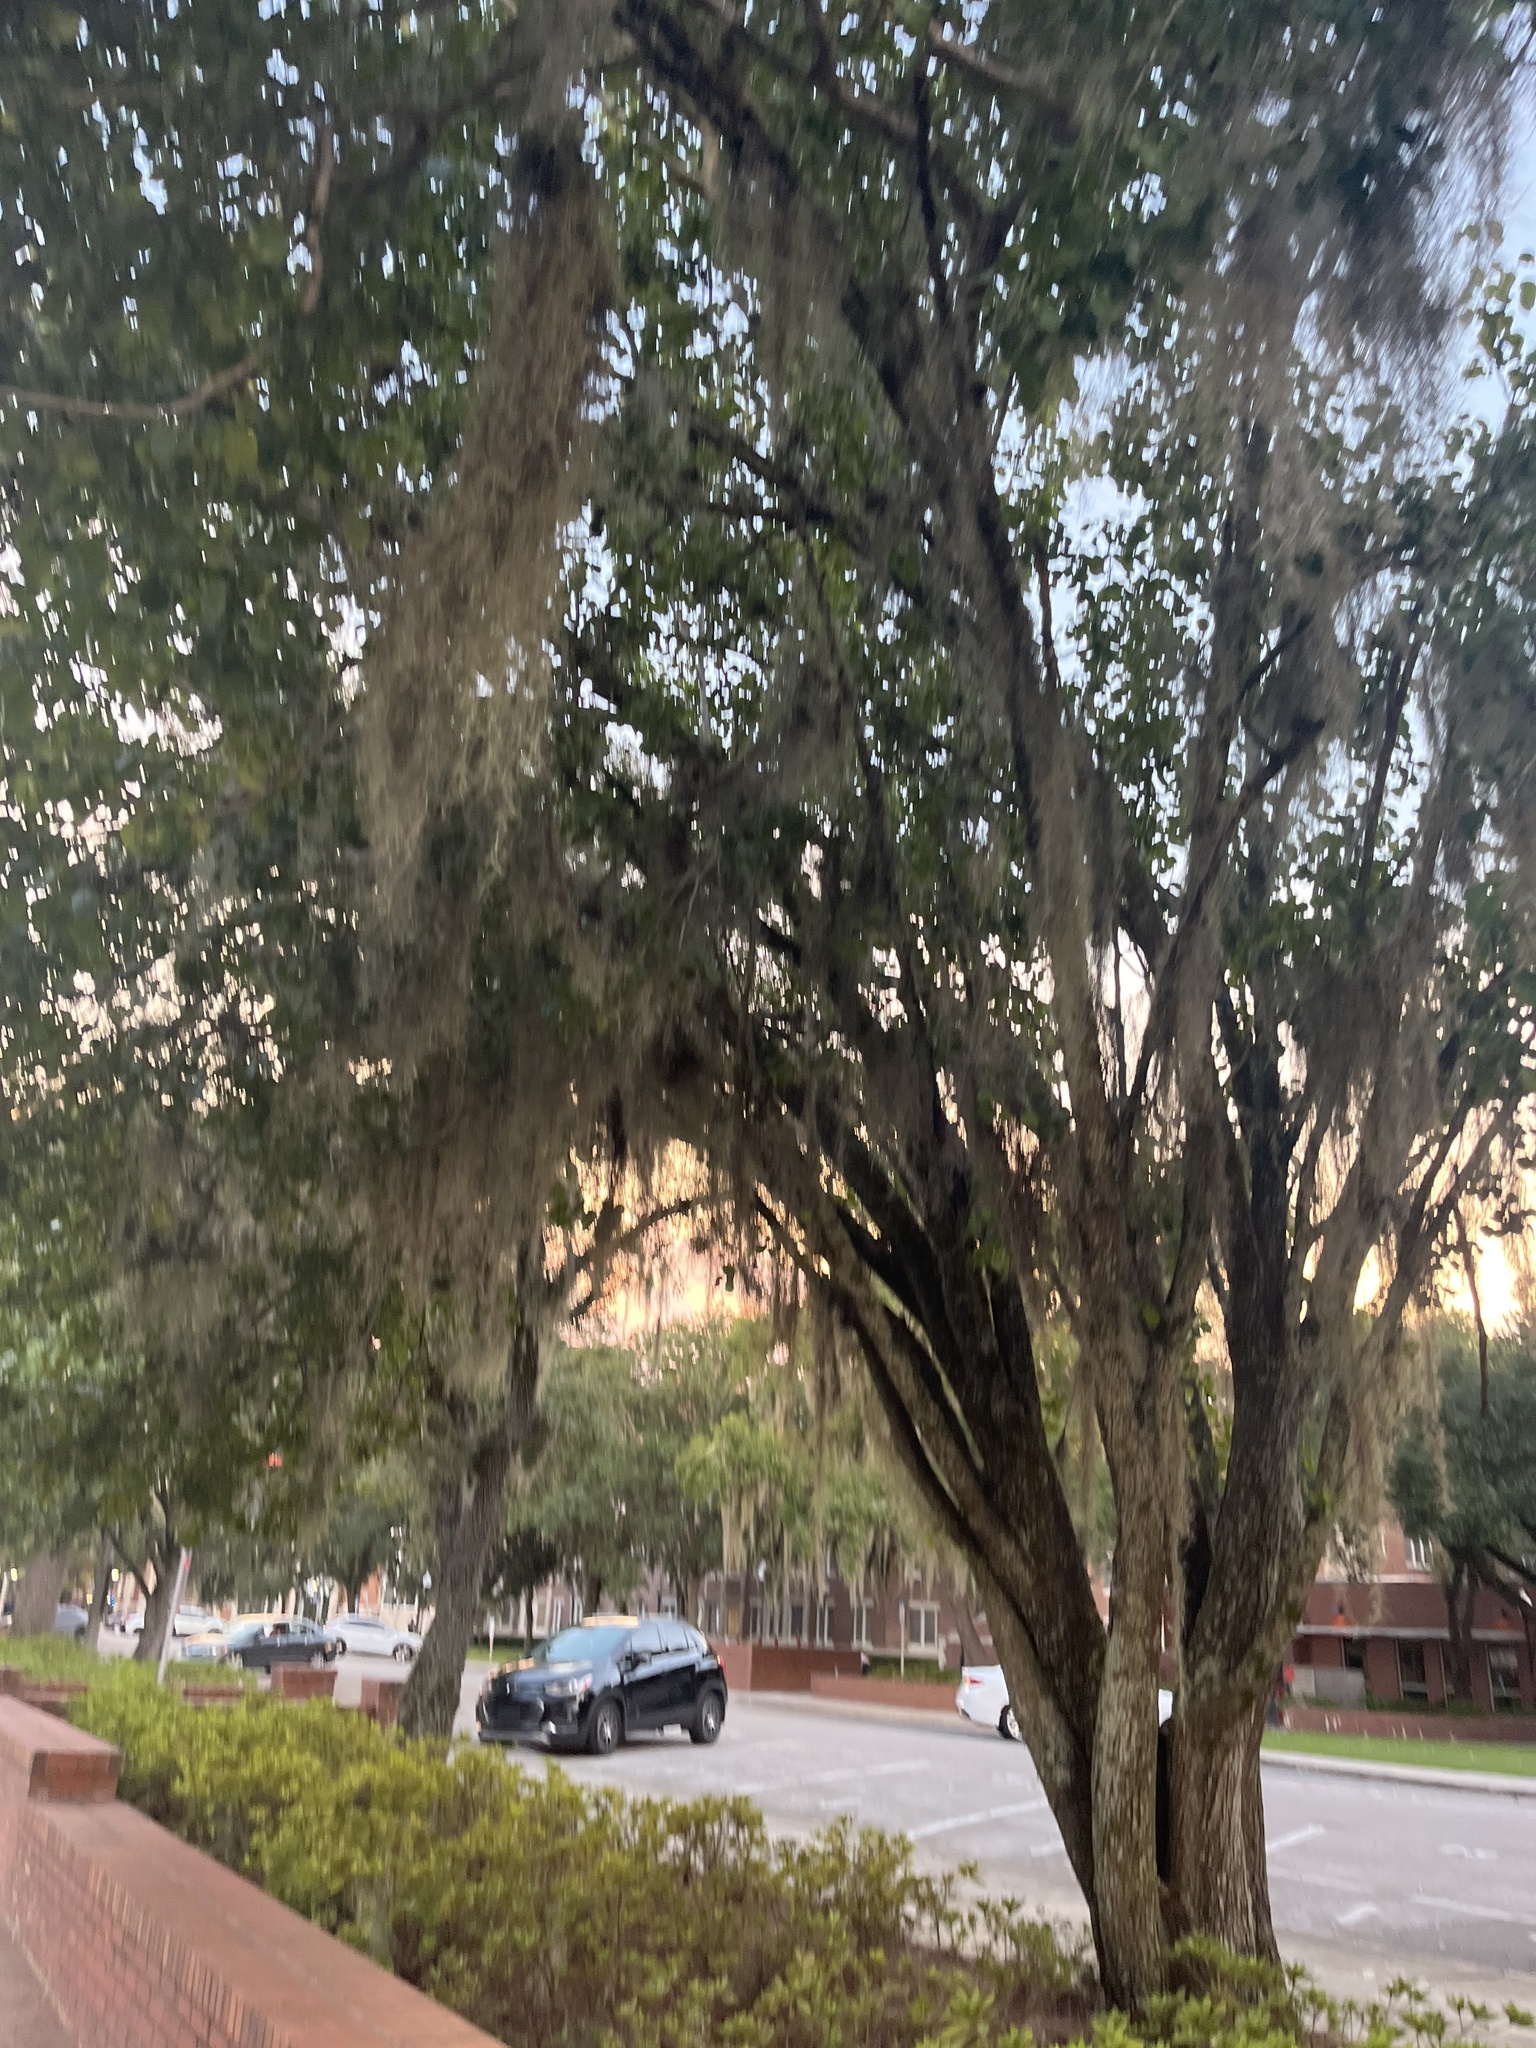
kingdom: Plantae
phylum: Tracheophyta
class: Liliopsida
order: Poales
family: Bromeliaceae
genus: Tillandsia
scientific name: Tillandsia usneoides
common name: Spanish moss
